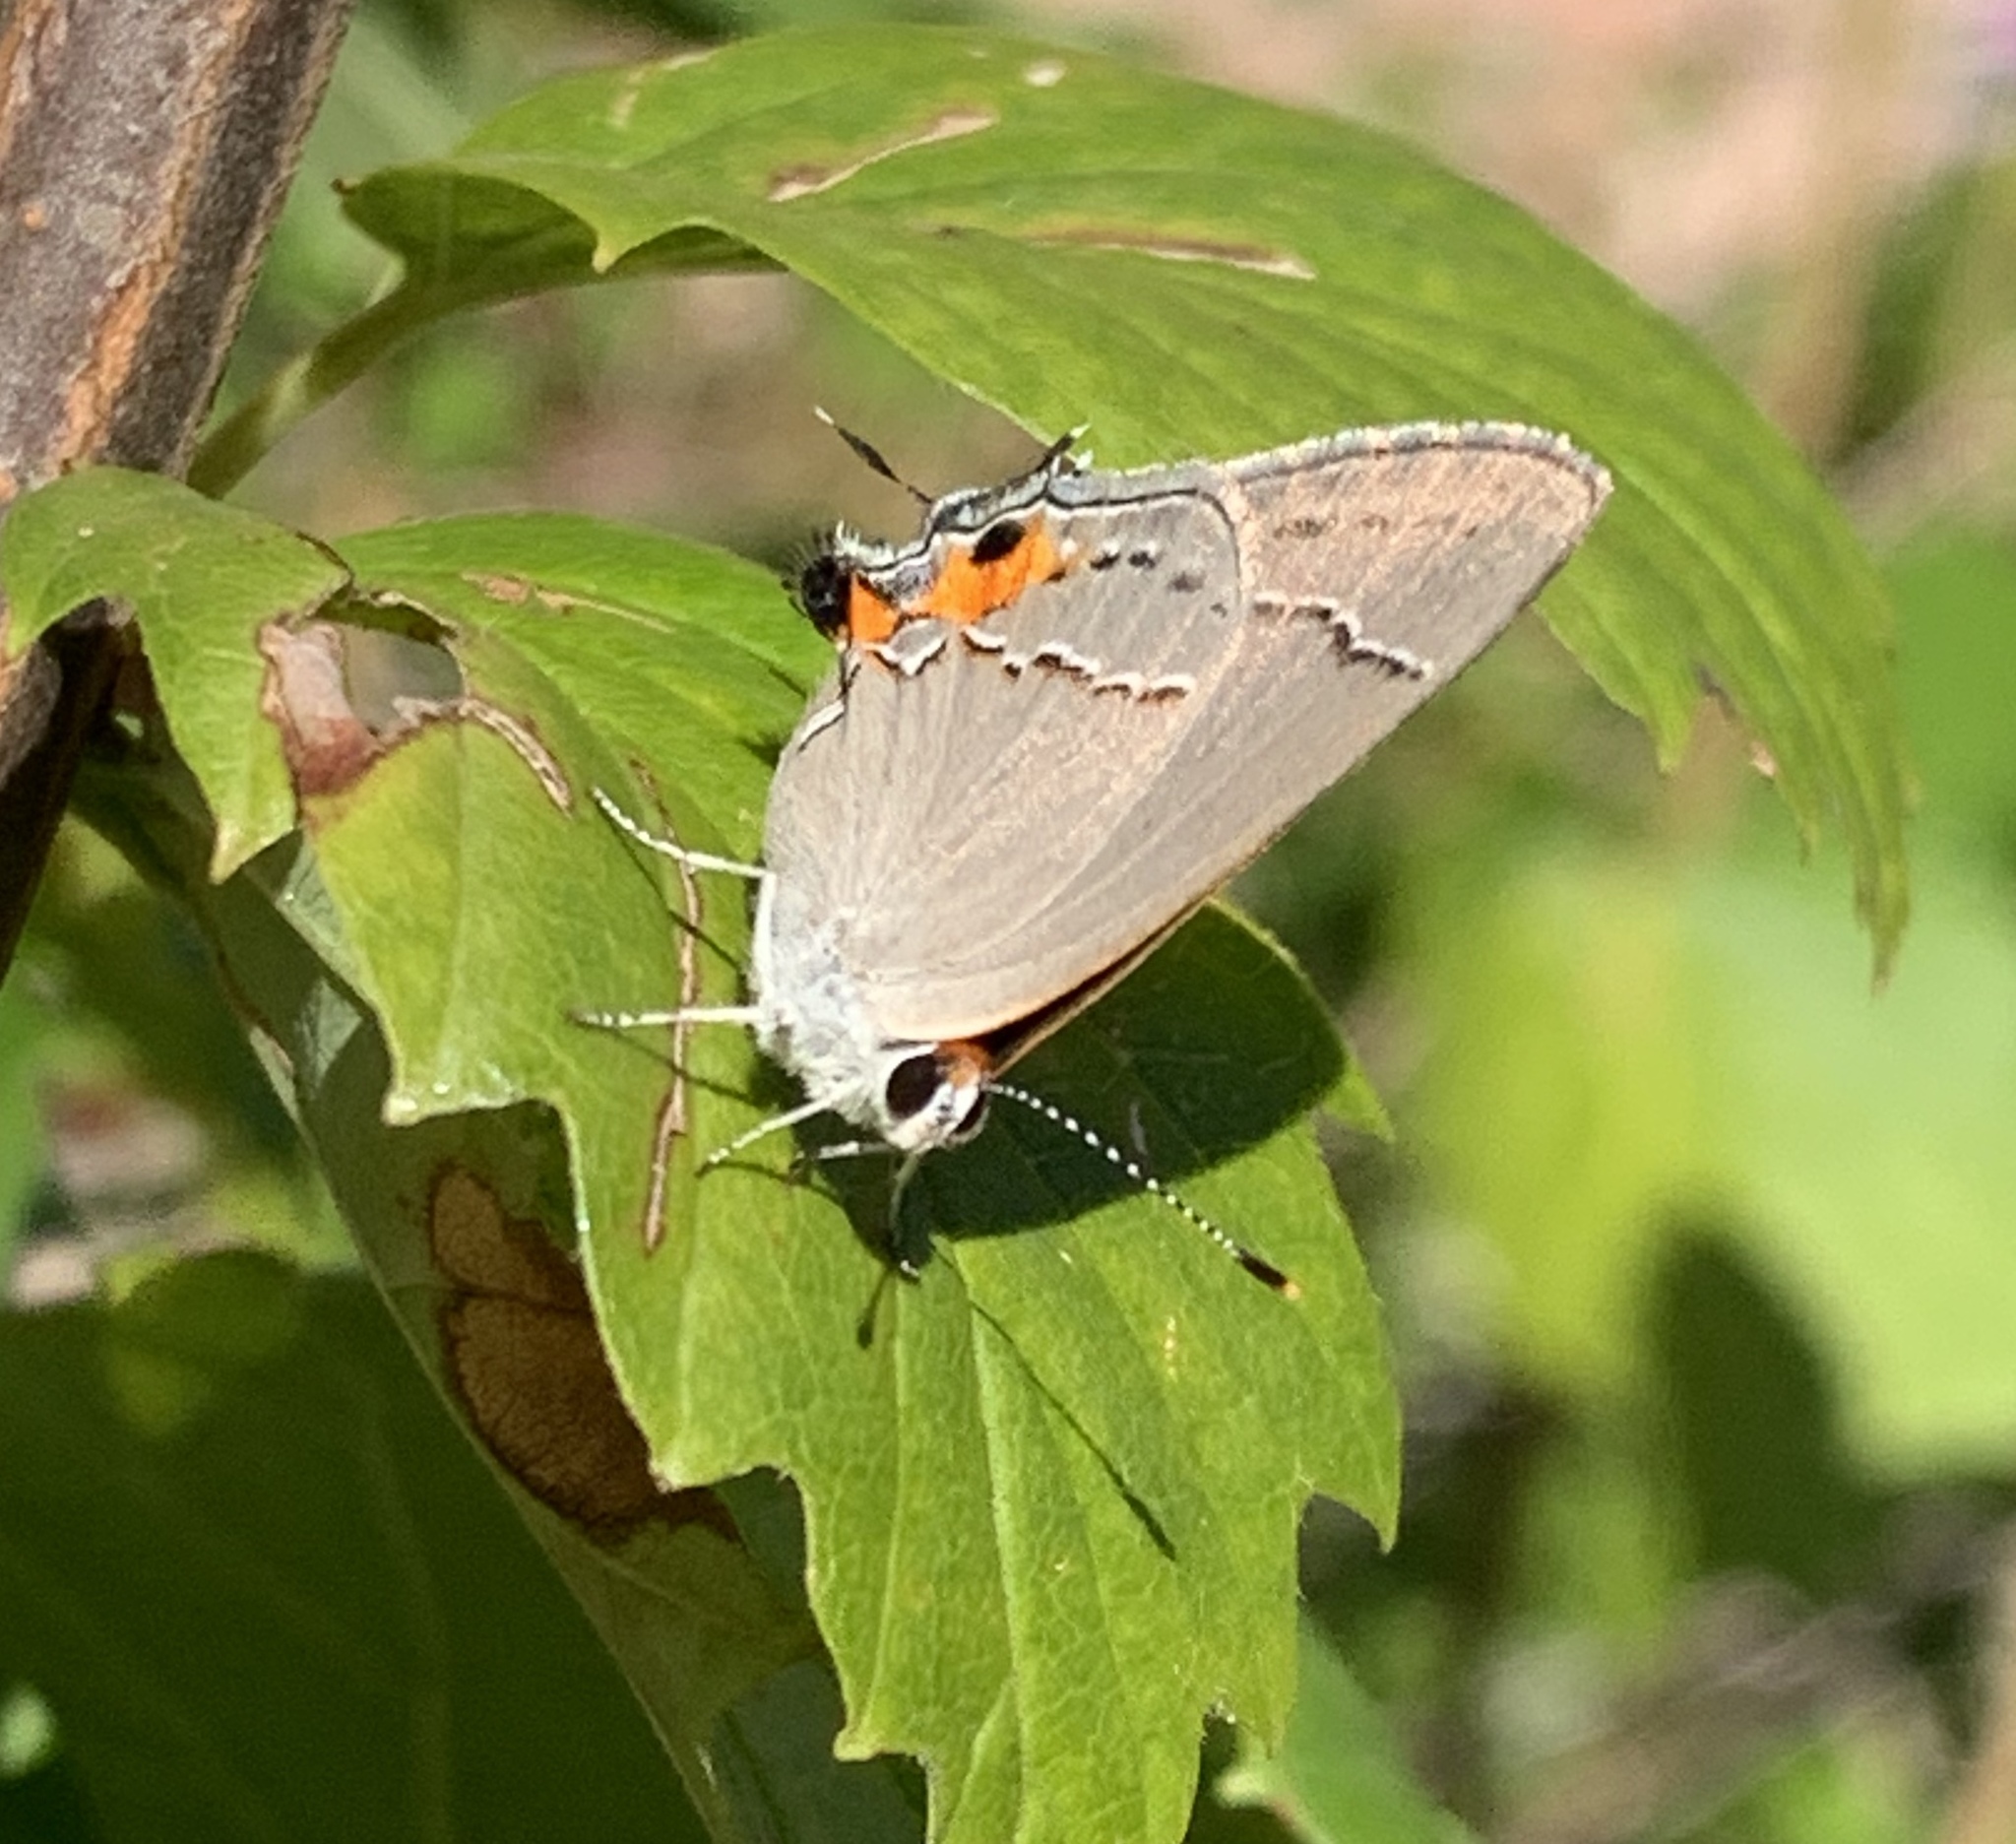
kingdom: Animalia
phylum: Arthropoda
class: Insecta
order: Lepidoptera
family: Lycaenidae
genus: Strymon
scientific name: Strymon melinus
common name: Gray hairstreak
